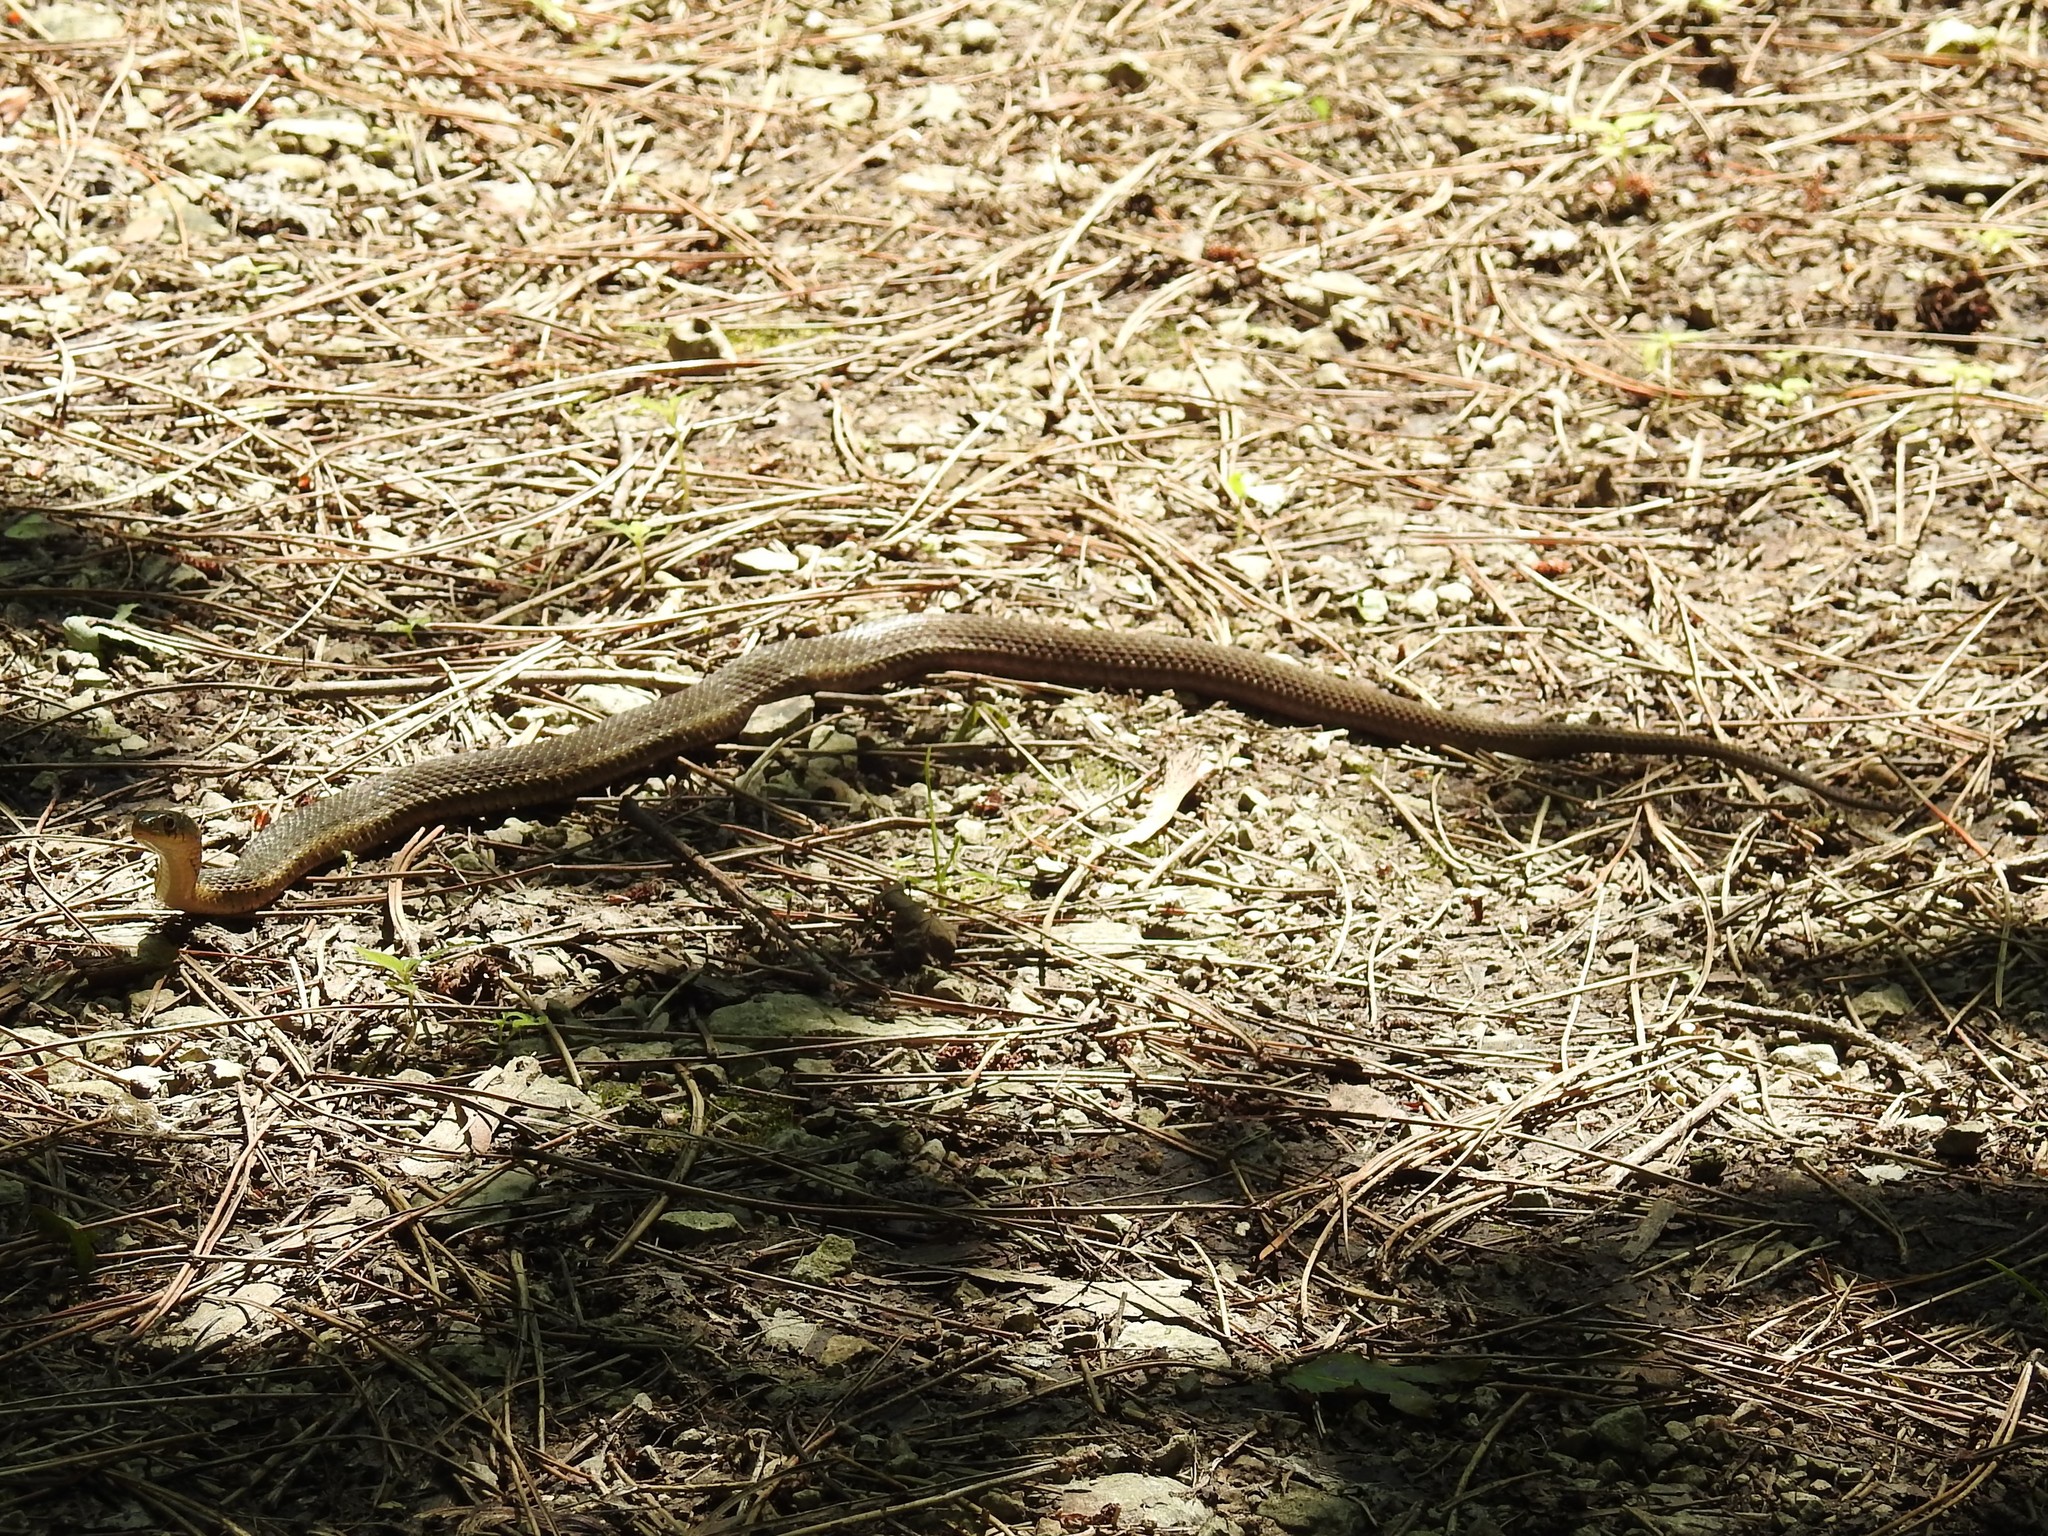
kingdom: Animalia
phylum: Chordata
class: Squamata
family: Colubridae
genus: Thamnophis
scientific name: Thamnophis sirtalis
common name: Common garter snake
